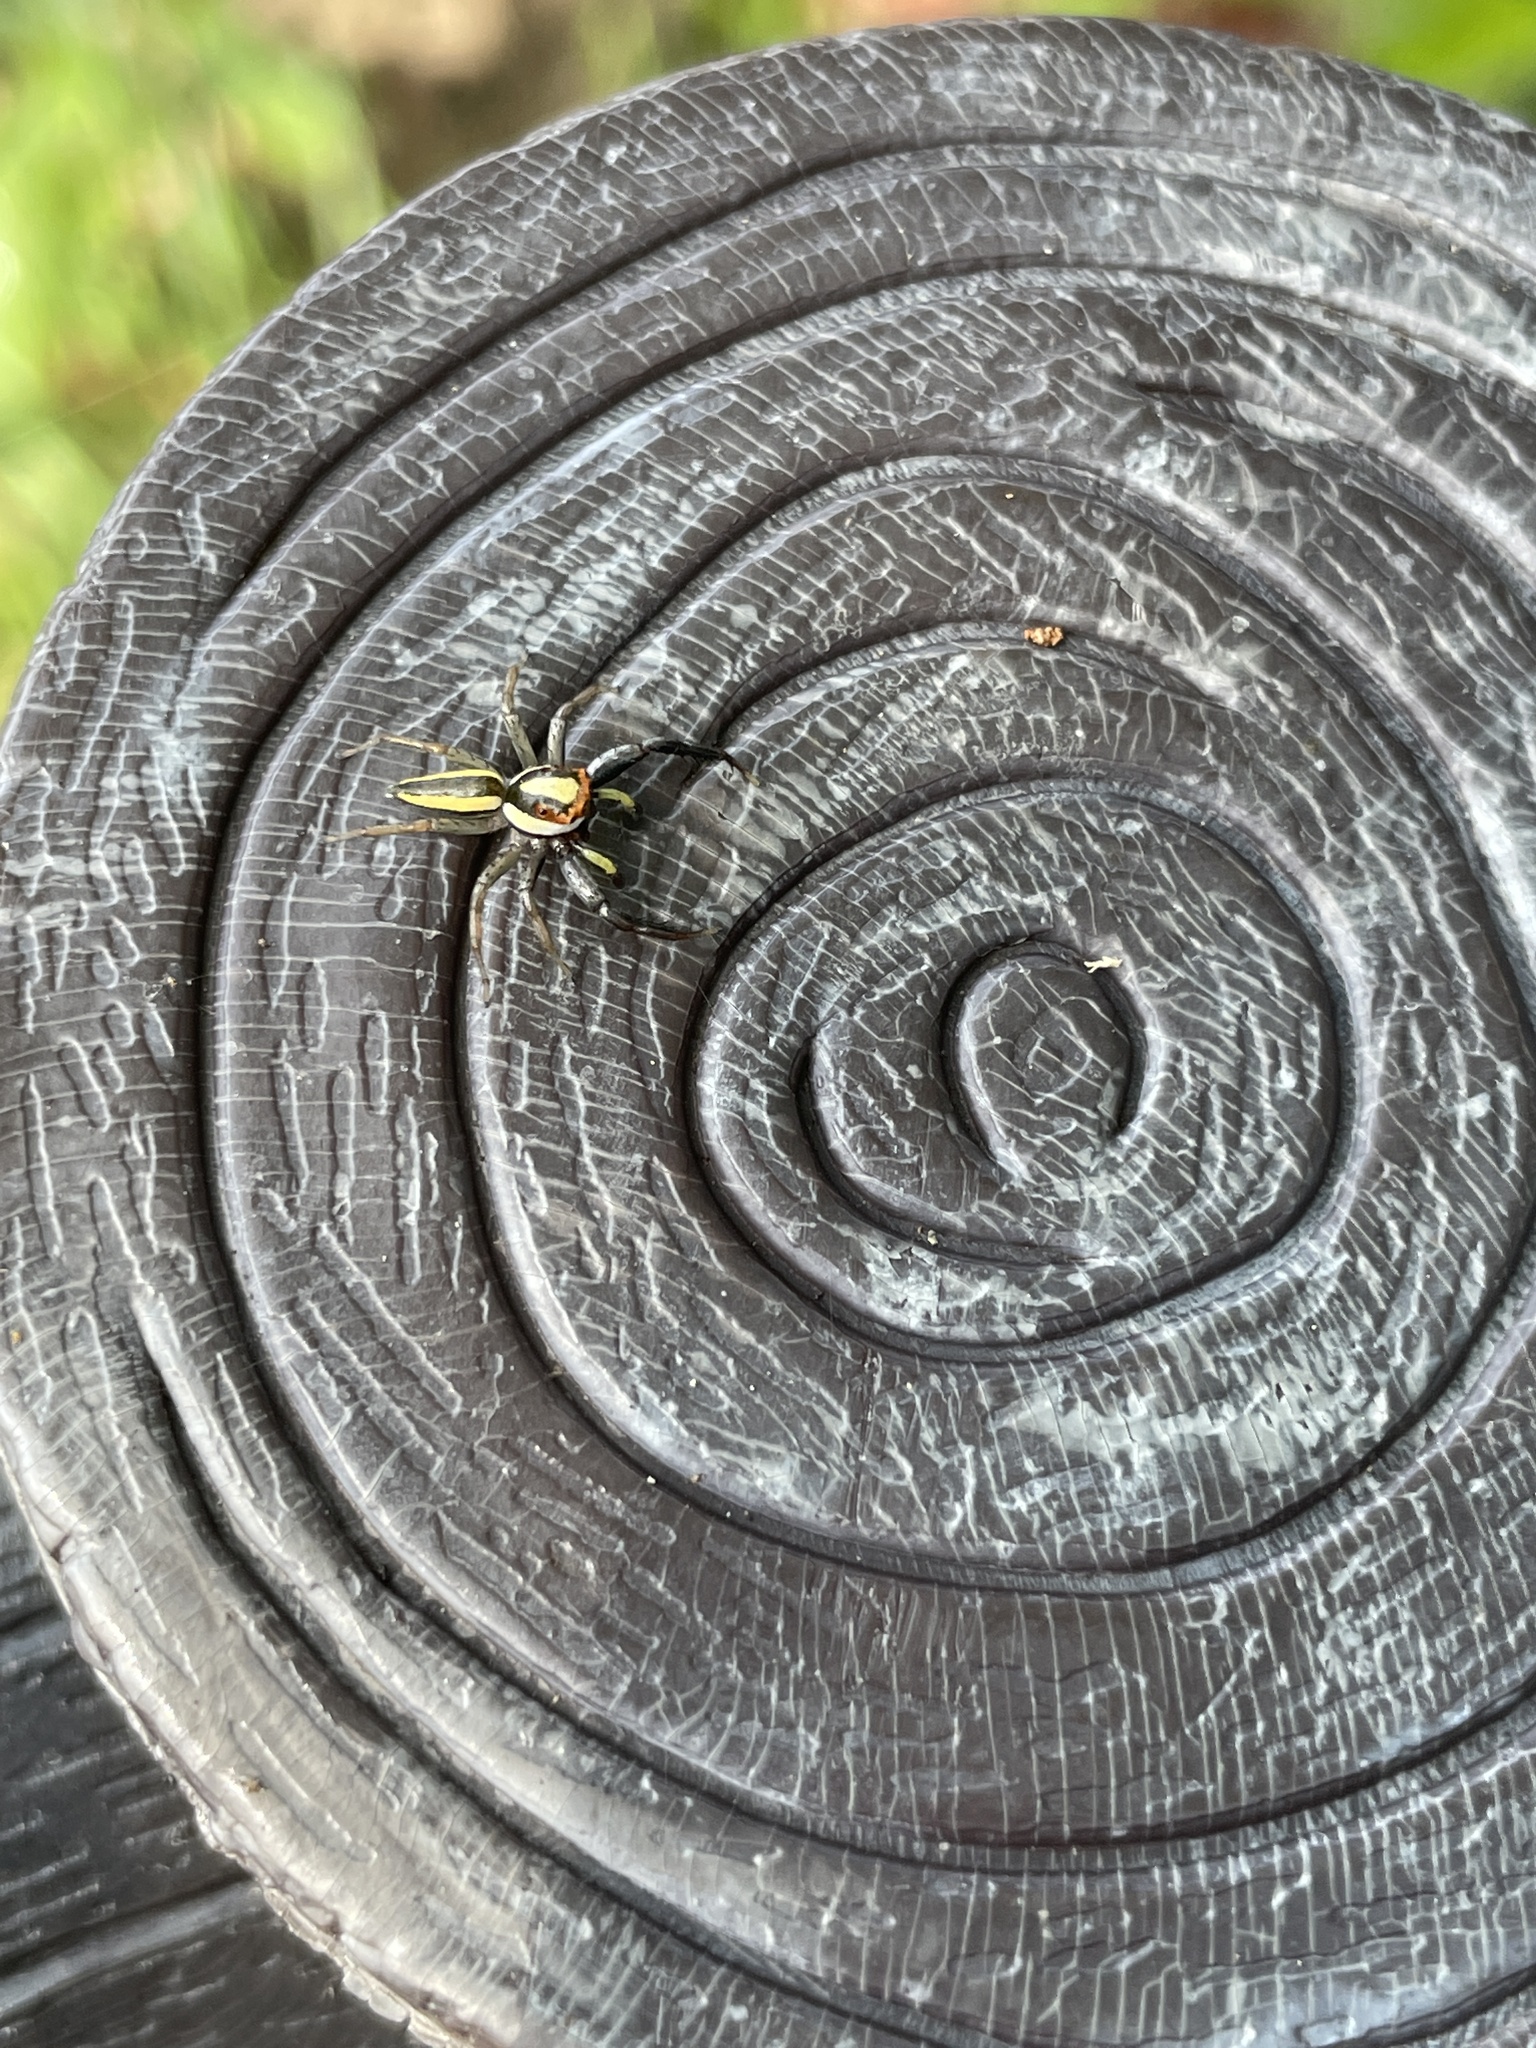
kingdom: Animalia
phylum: Arthropoda
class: Arachnida
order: Araneae
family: Salticidae
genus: Epocilla
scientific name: Epocilla blairei
